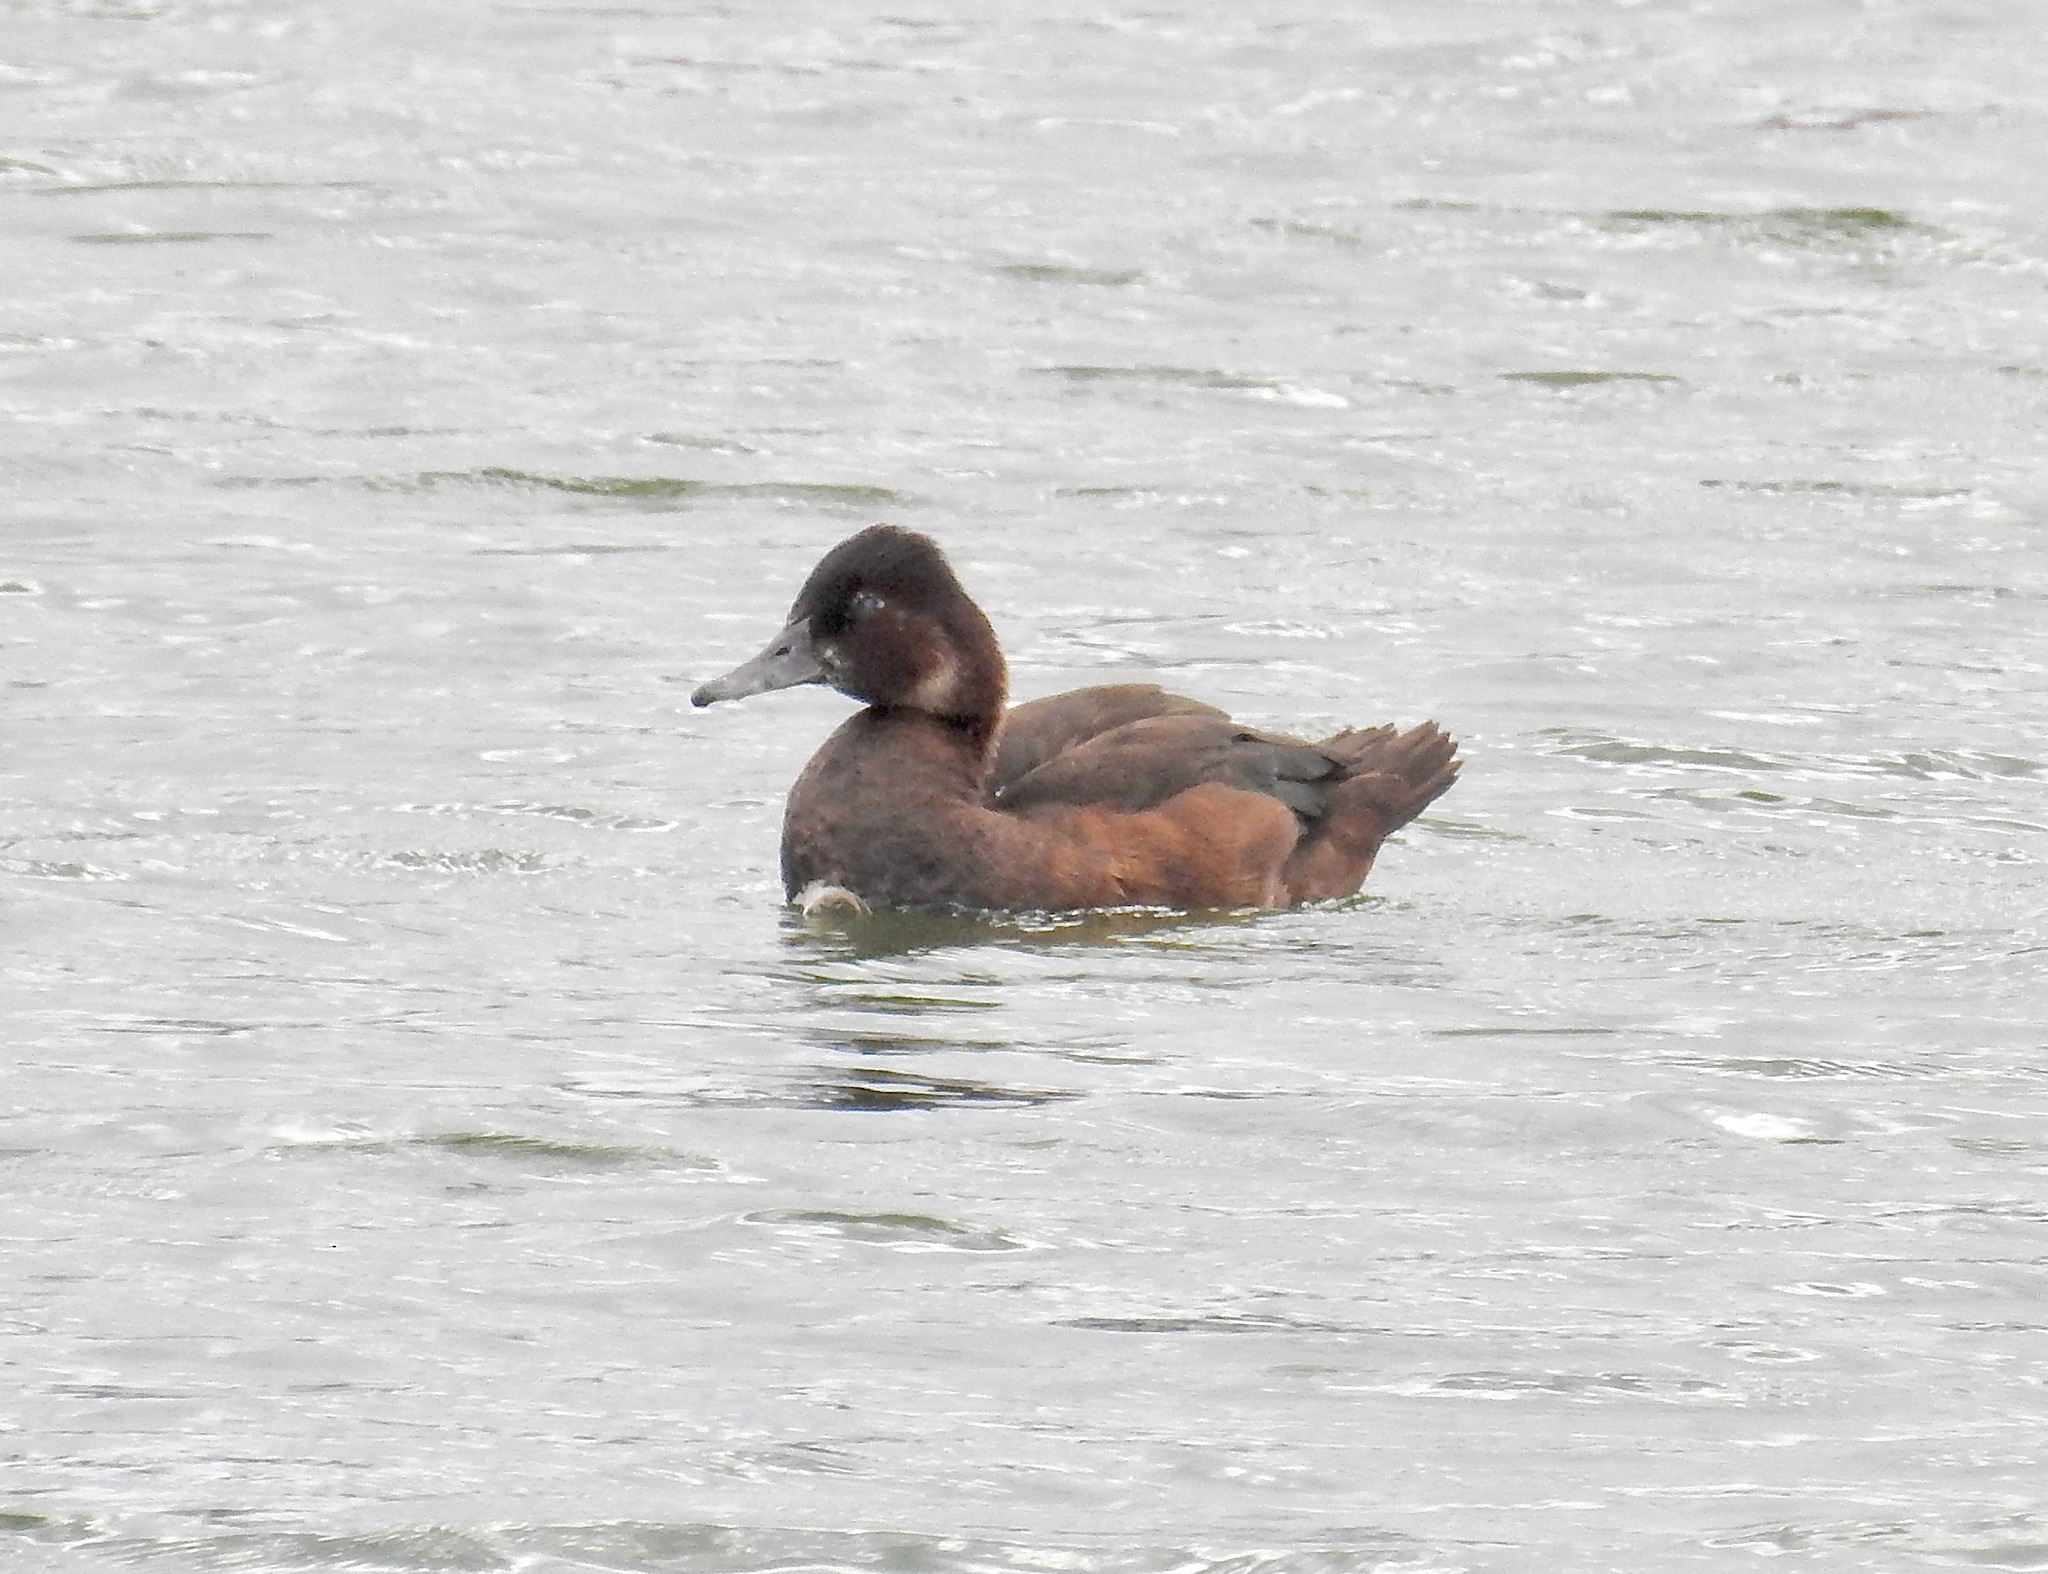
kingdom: Animalia
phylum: Chordata
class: Aves
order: Anseriformes
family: Anatidae
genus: Netta
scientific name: Netta erythrophthalma
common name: Southern pochard
